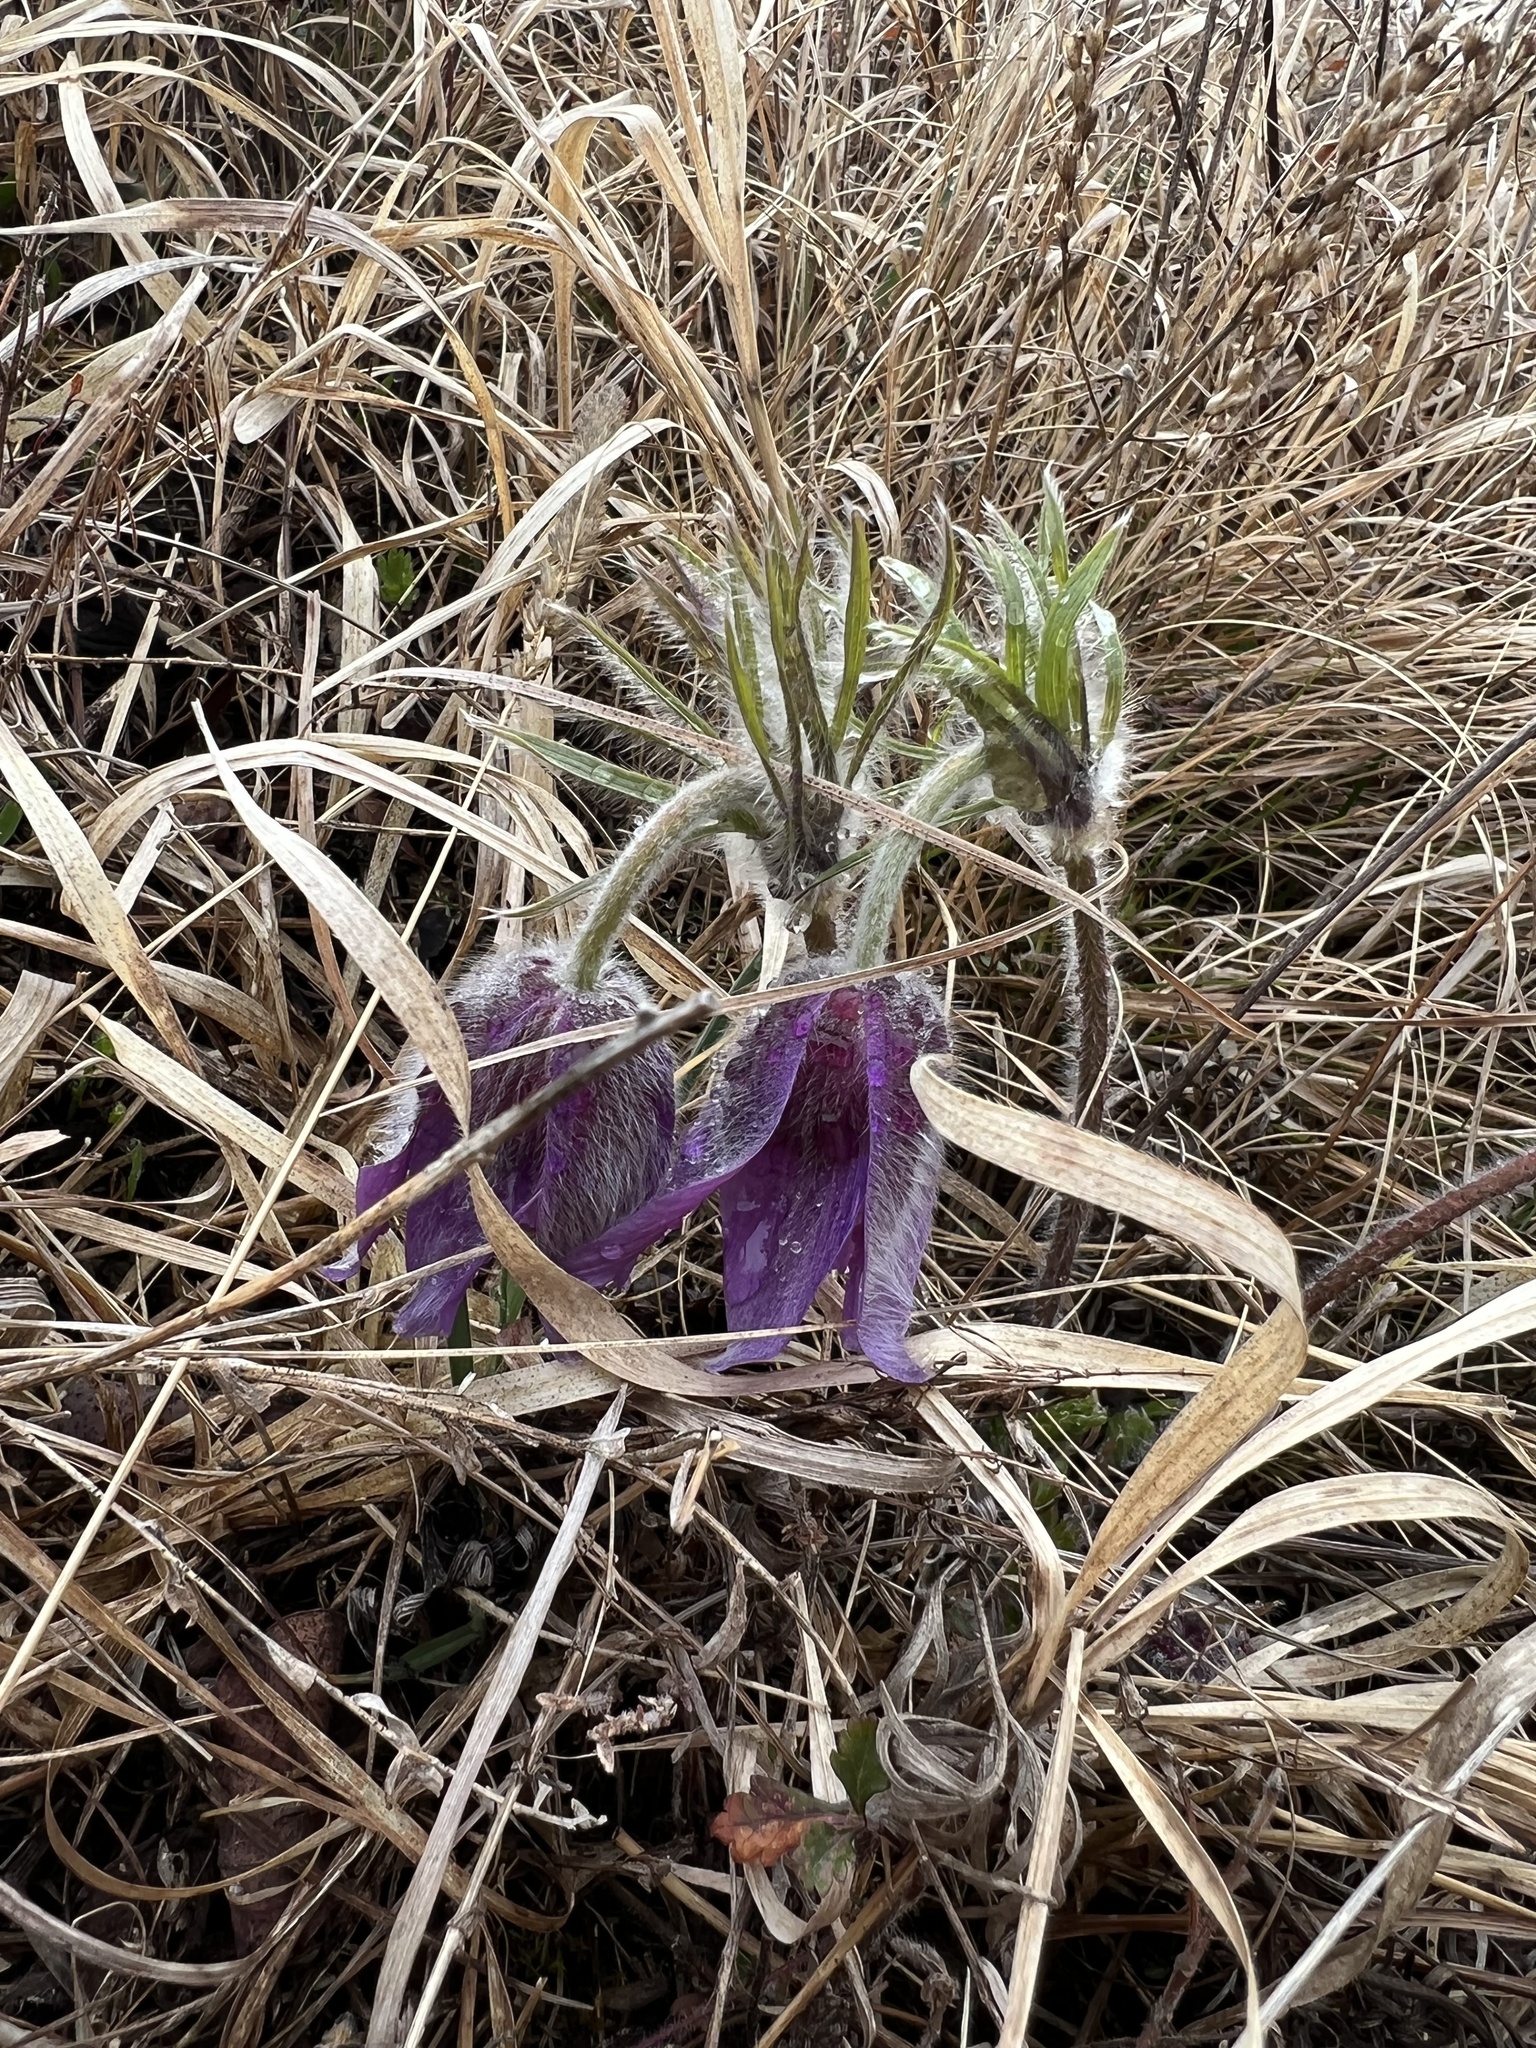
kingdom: Plantae
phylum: Tracheophyta
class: Magnoliopsida
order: Ranunculales
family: Ranunculaceae
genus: Pulsatilla
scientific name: Pulsatilla montana
